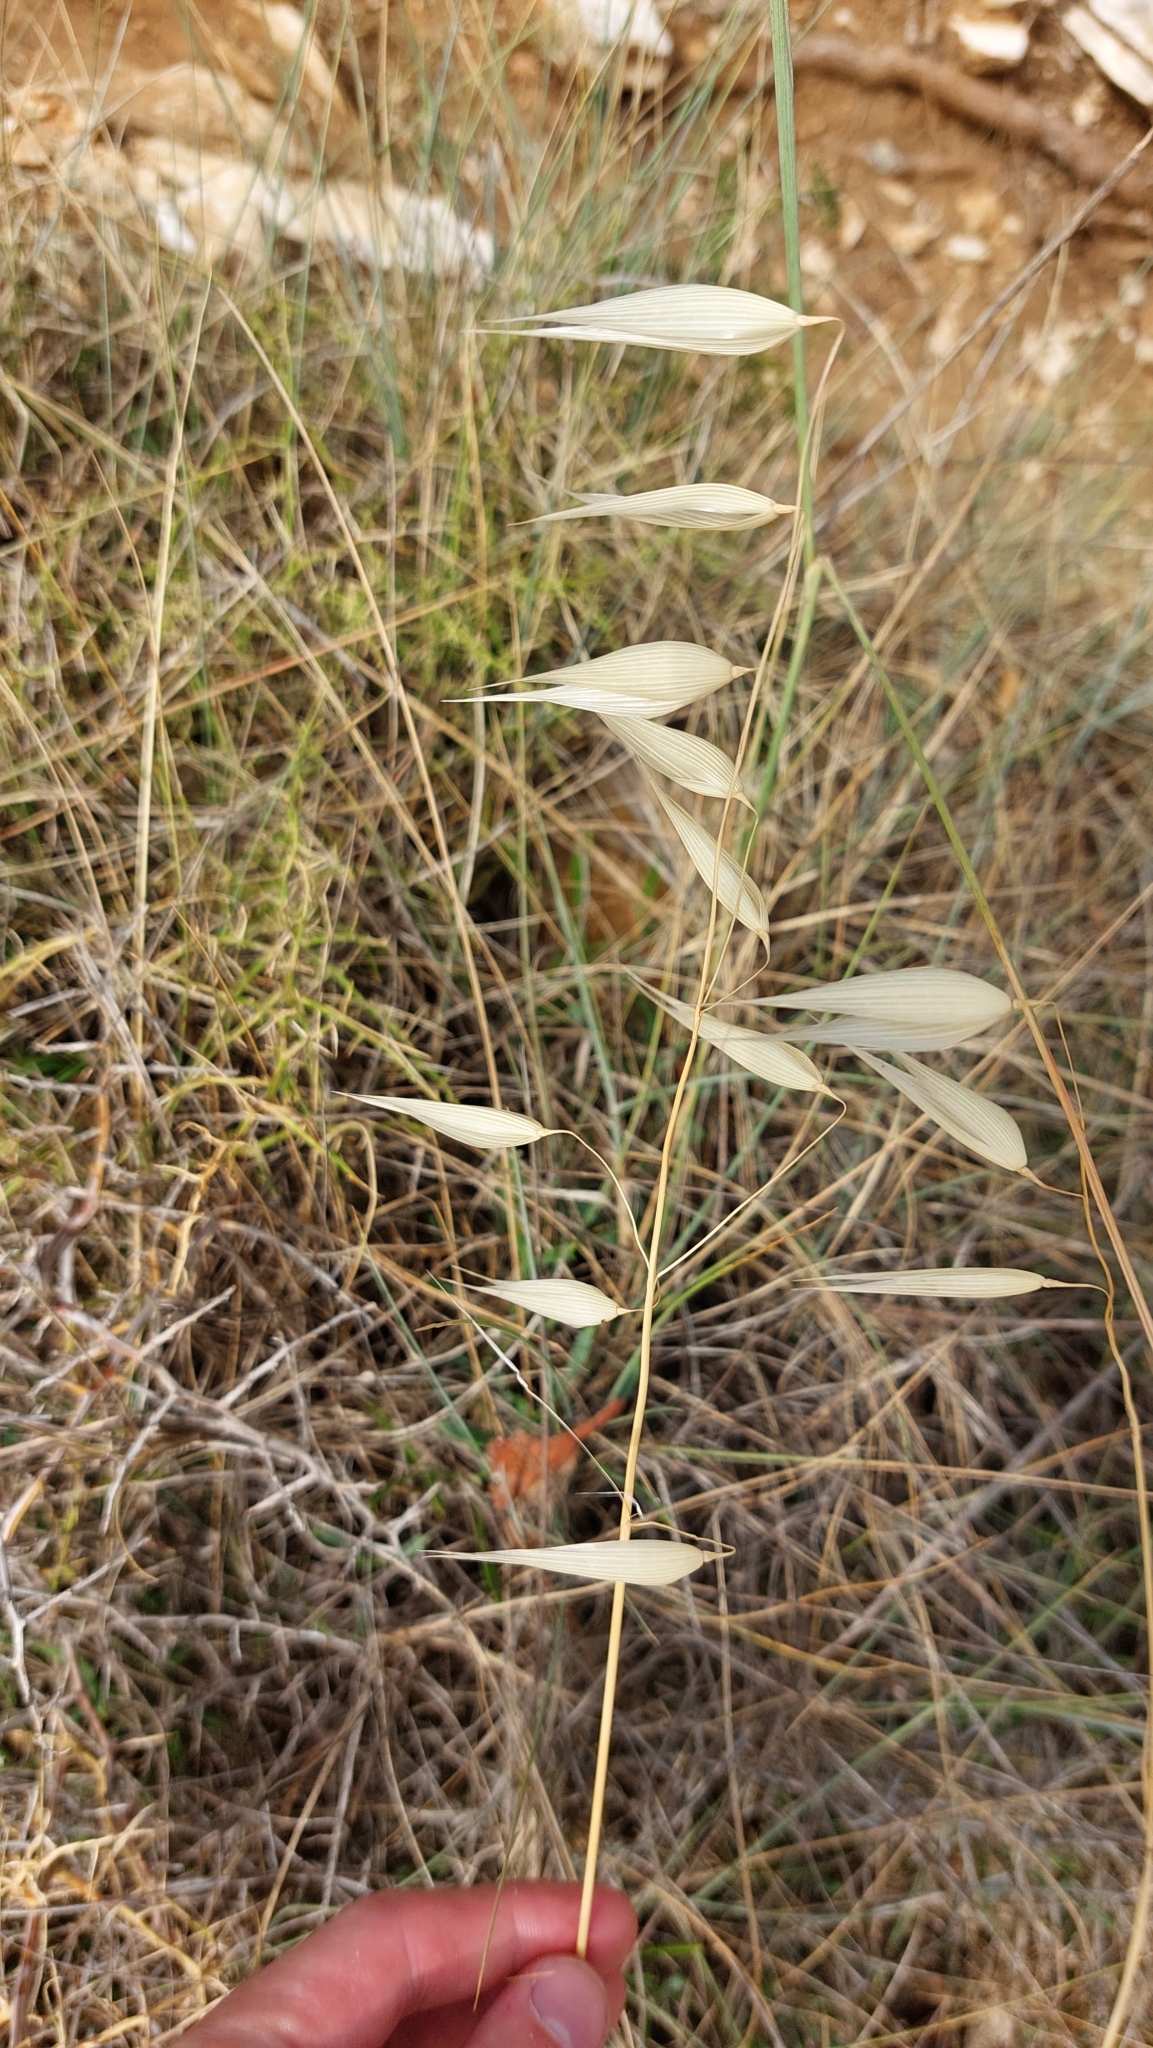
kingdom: Plantae
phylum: Tracheophyta
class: Liliopsida
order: Poales
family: Poaceae
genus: Avena
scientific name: Avena
